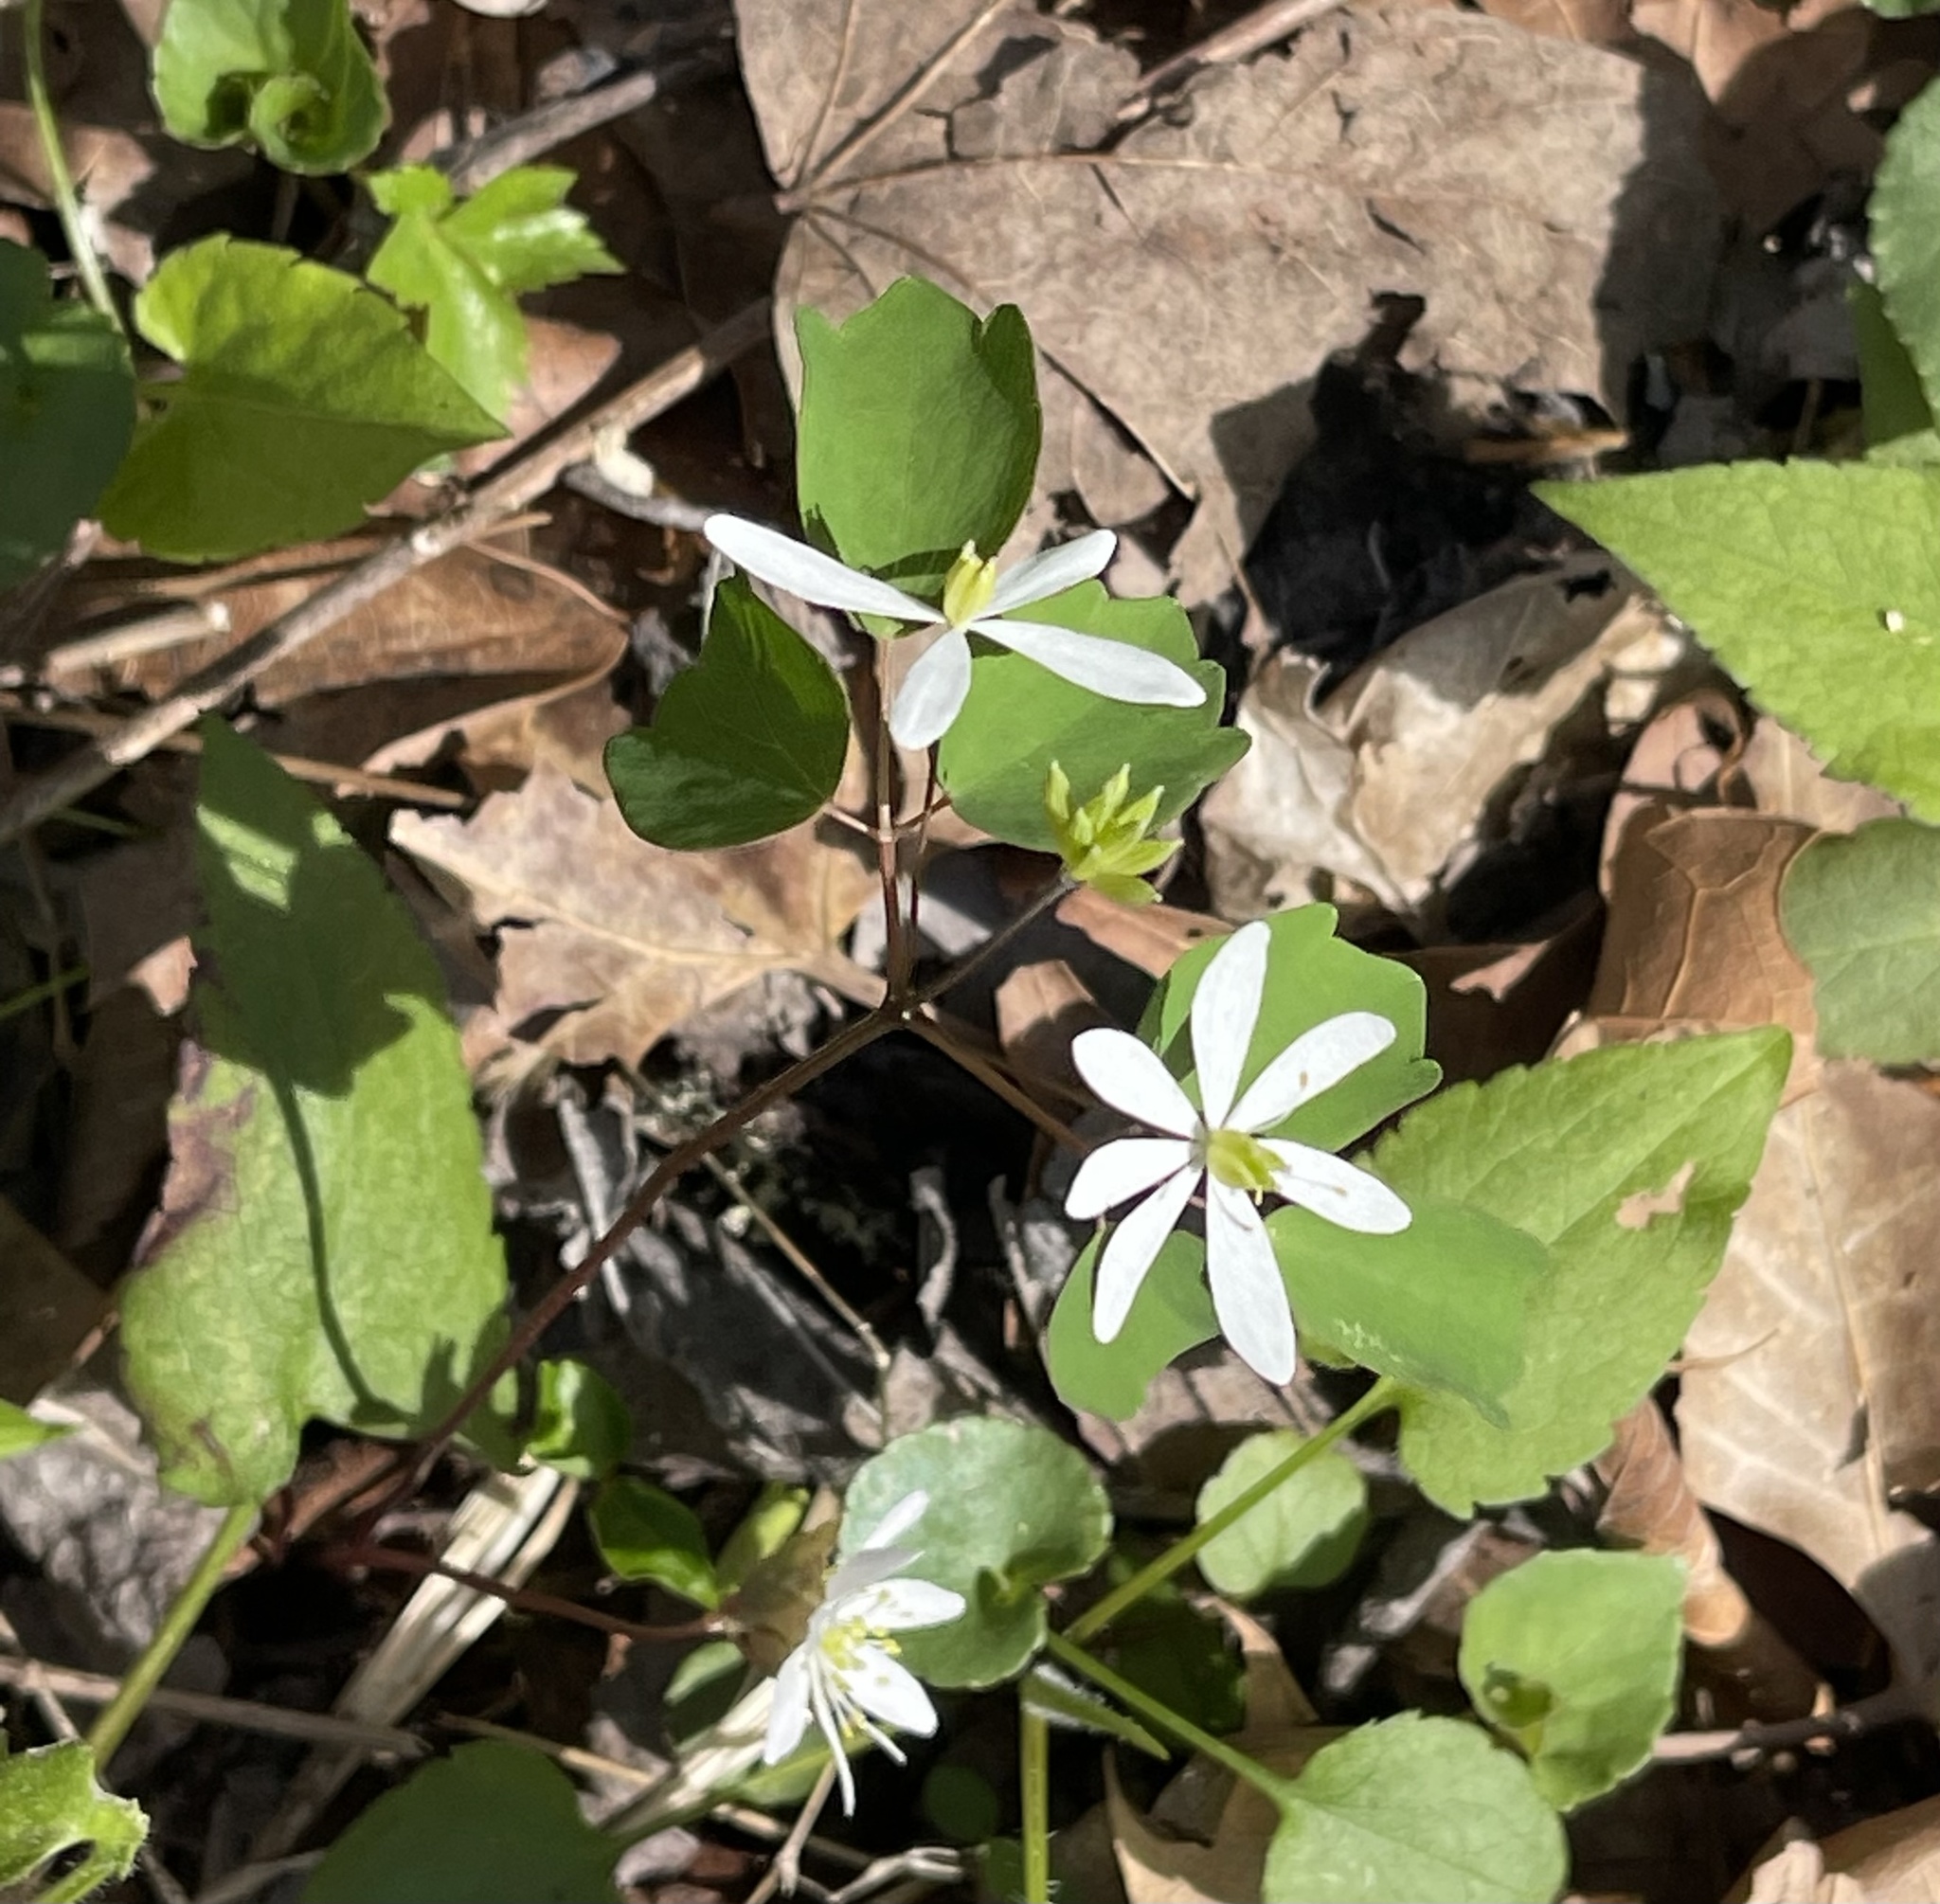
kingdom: Plantae
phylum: Tracheophyta
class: Magnoliopsida
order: Ranunculales
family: Ranunculaceae
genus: Thalictrum
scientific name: Thalictrum thalictroides
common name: Rue-anemone
